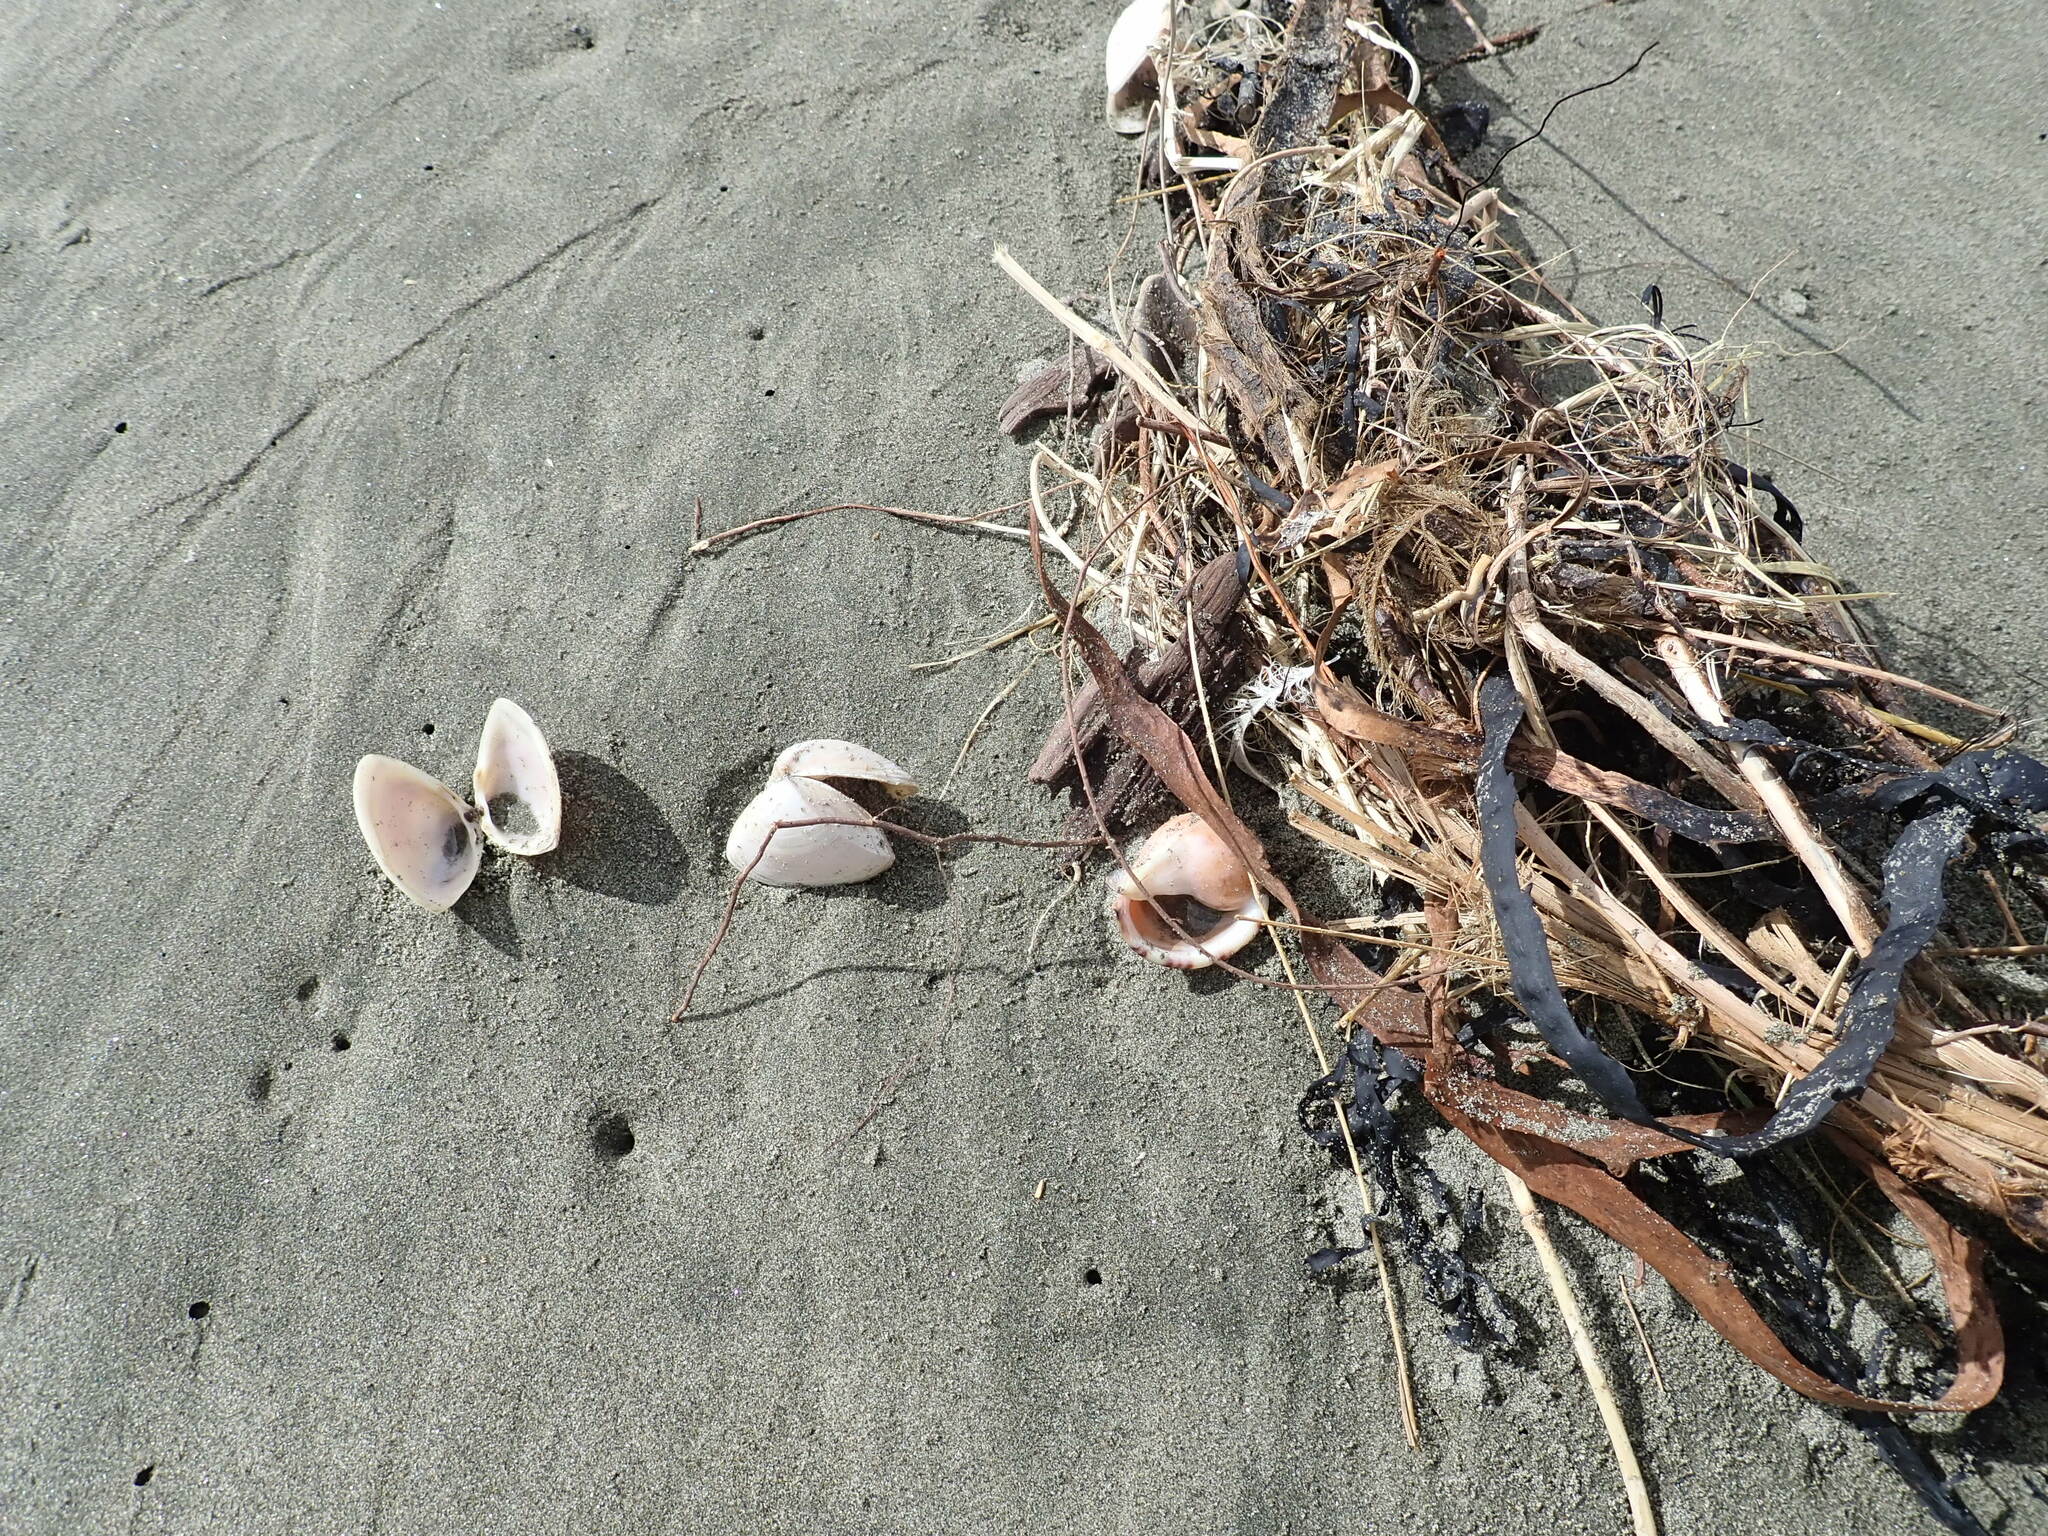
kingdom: Animalia
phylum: Mollusca
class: Gastropoda
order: Littorinimorpha
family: Cassidae
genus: Semicassis
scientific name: Semicassis pyrum
